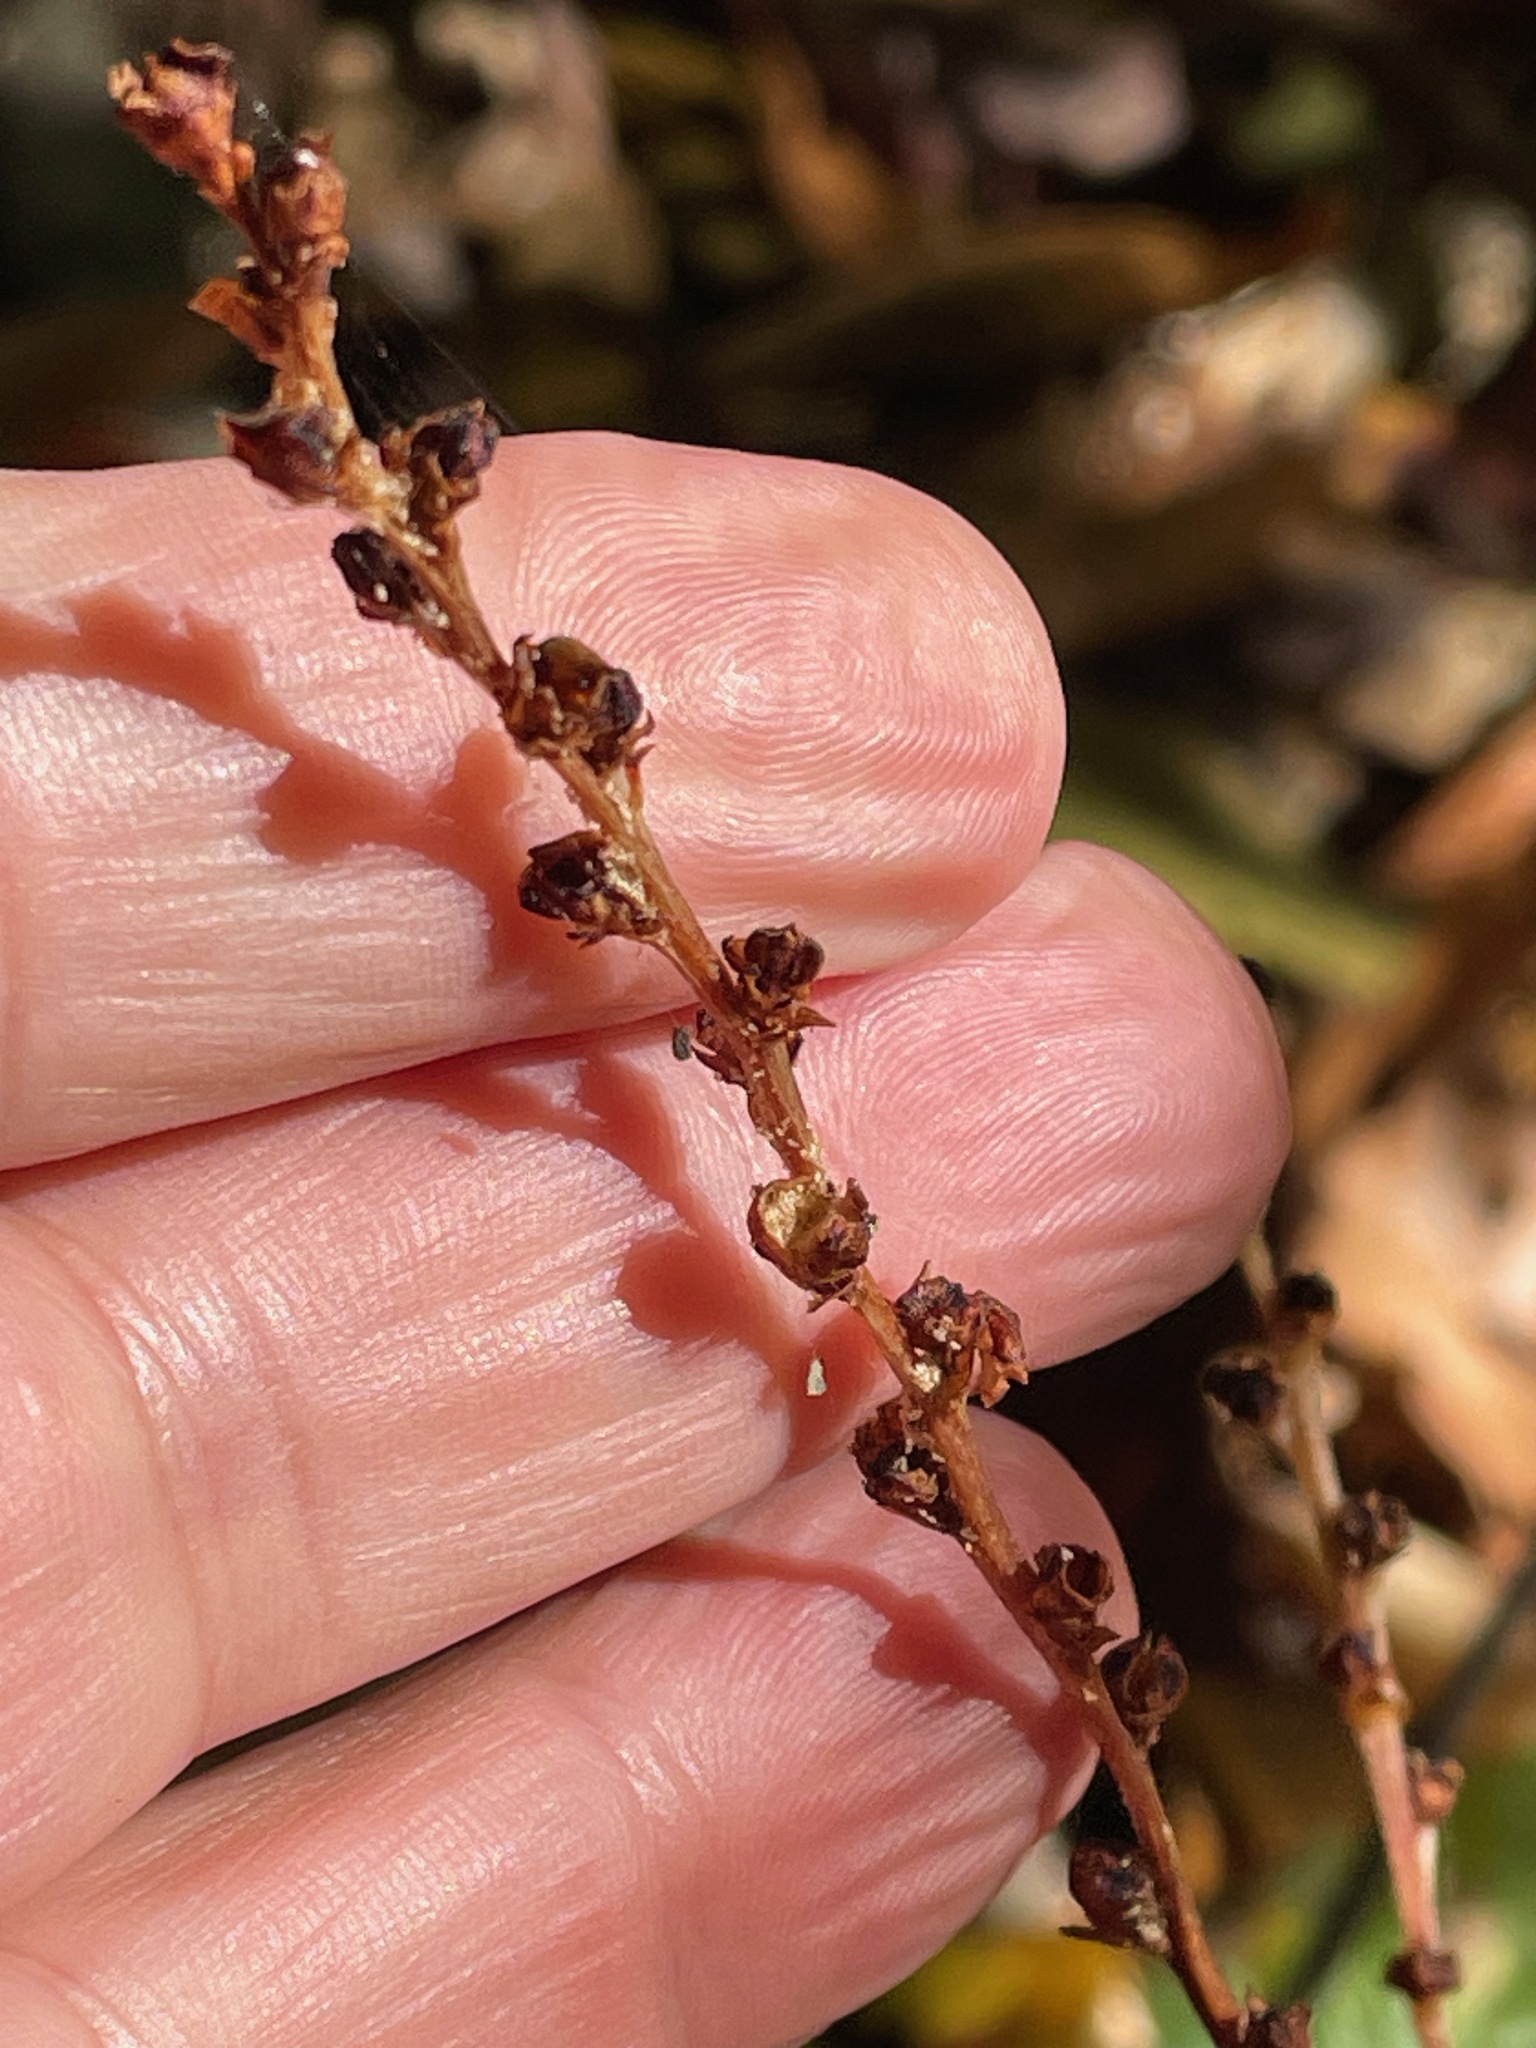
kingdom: Plantae
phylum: Tracheophyta
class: Magnoliopsida
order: Lamiales
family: Orobanchaceae
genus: Epifagus
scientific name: Epifagus virginiana
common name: Beechdrops
